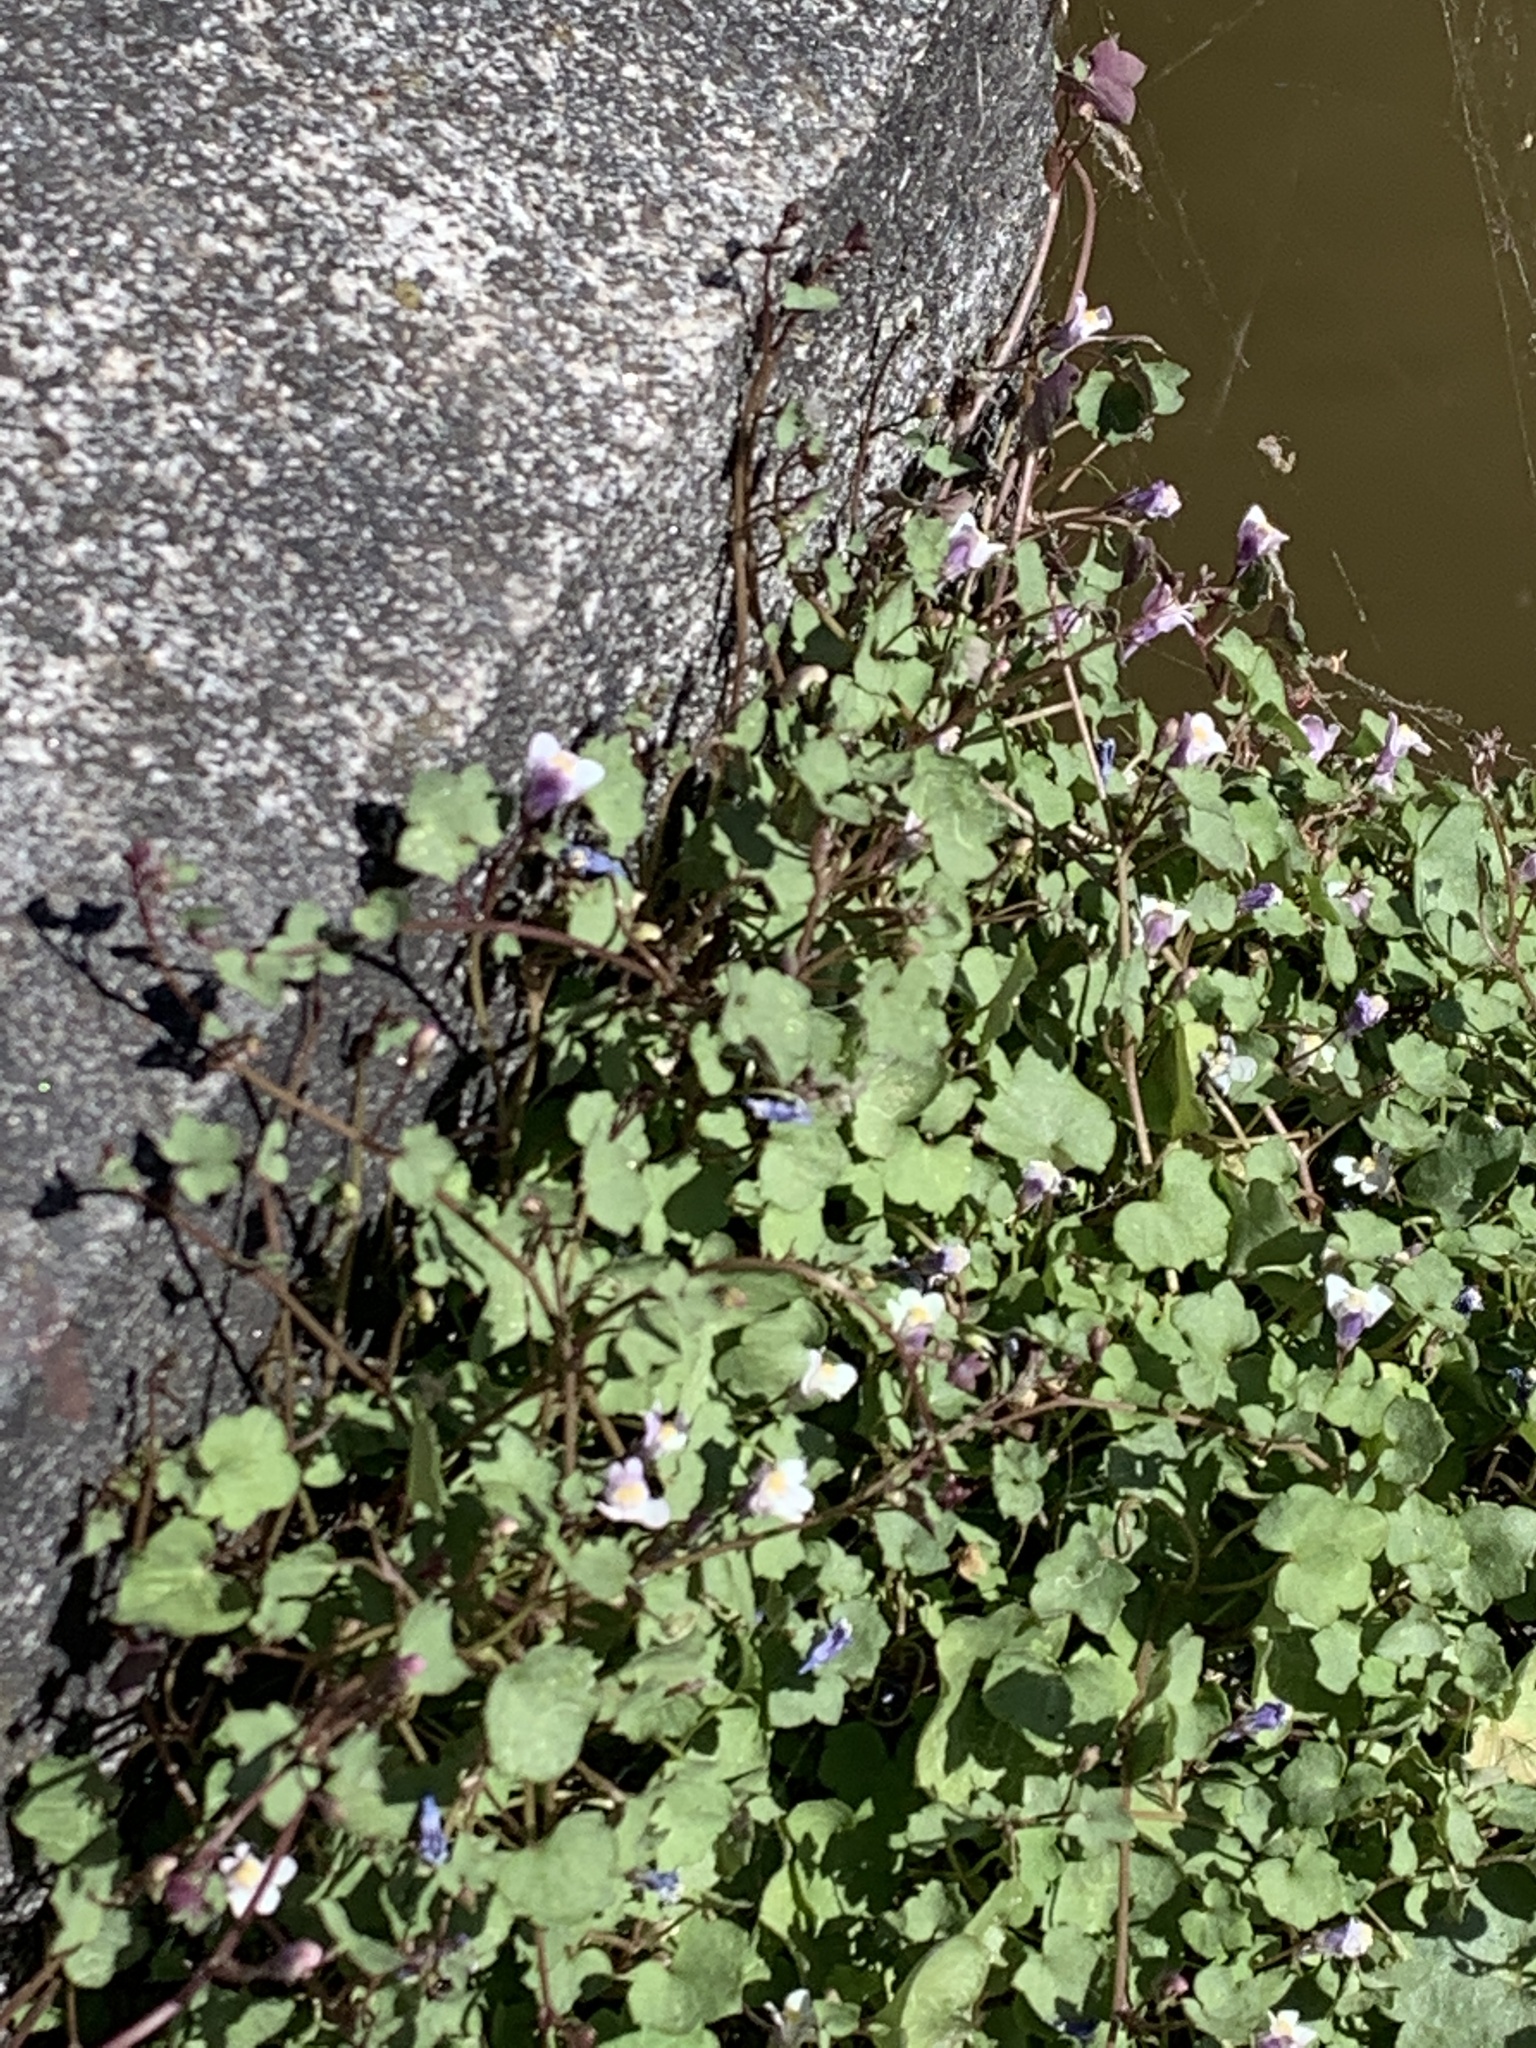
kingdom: Plantae
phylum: Tracheophyta
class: Magnoliopsida
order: Lamiales
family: Plantaginaceae
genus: Cymbalaria
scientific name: Cymbalaria muralis
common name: Ivy-leaved toadflax
